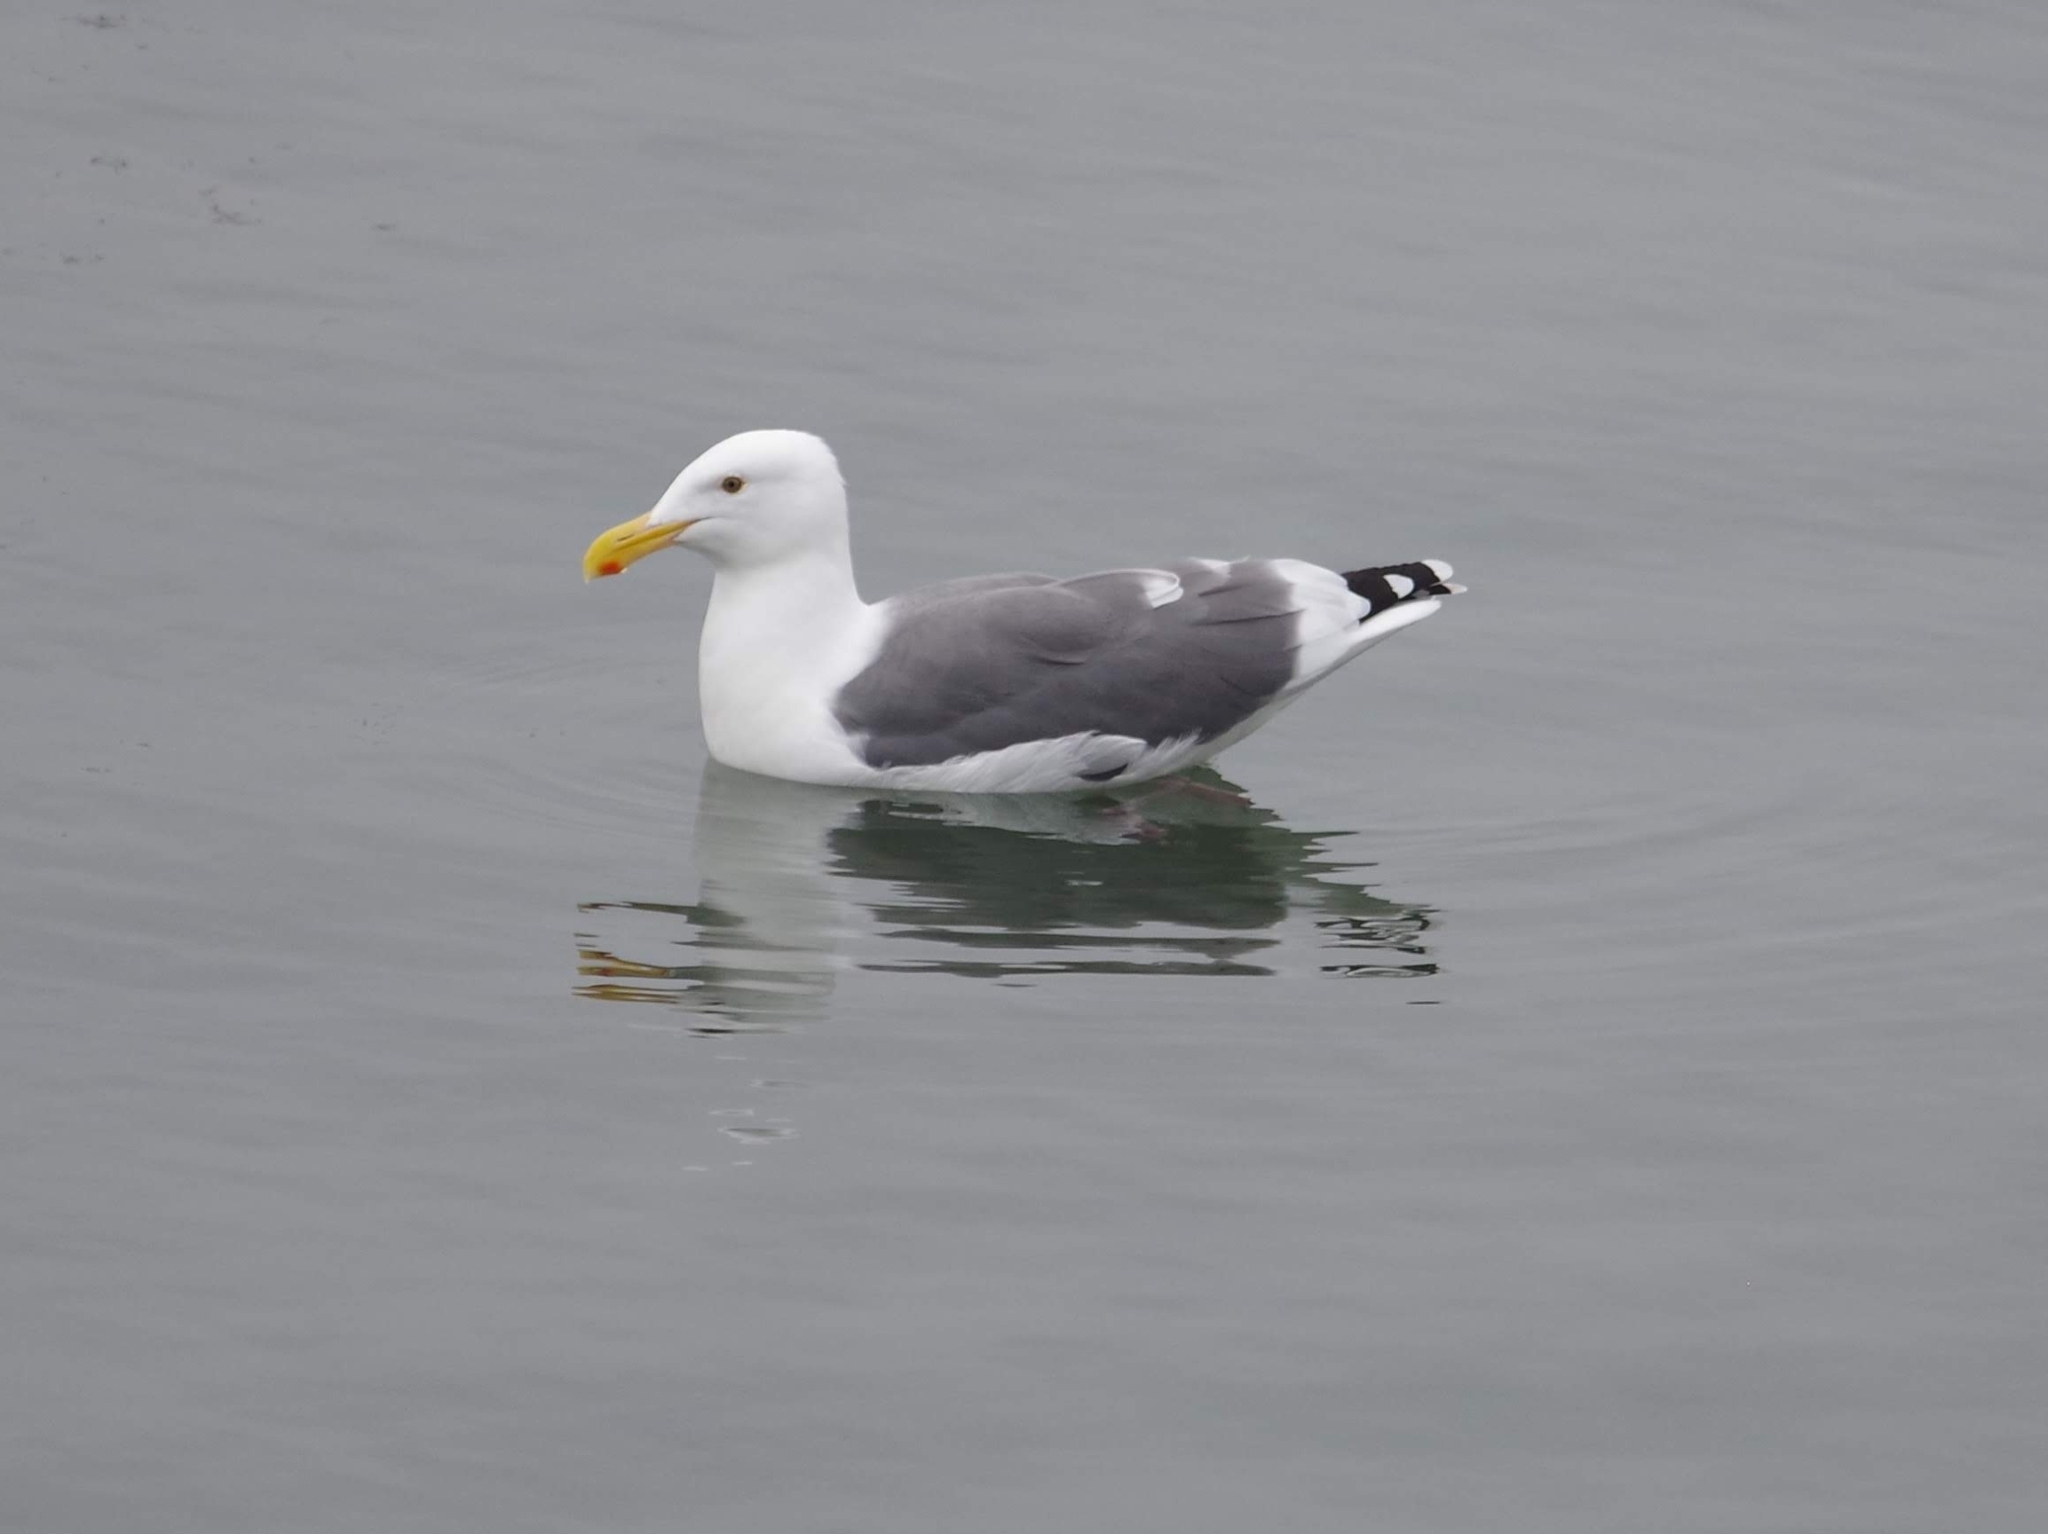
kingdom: Animalia
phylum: Chordata
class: Aves
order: Charadriiformes
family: Laridae
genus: Larus
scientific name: Larus occidentalis
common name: Western gull
